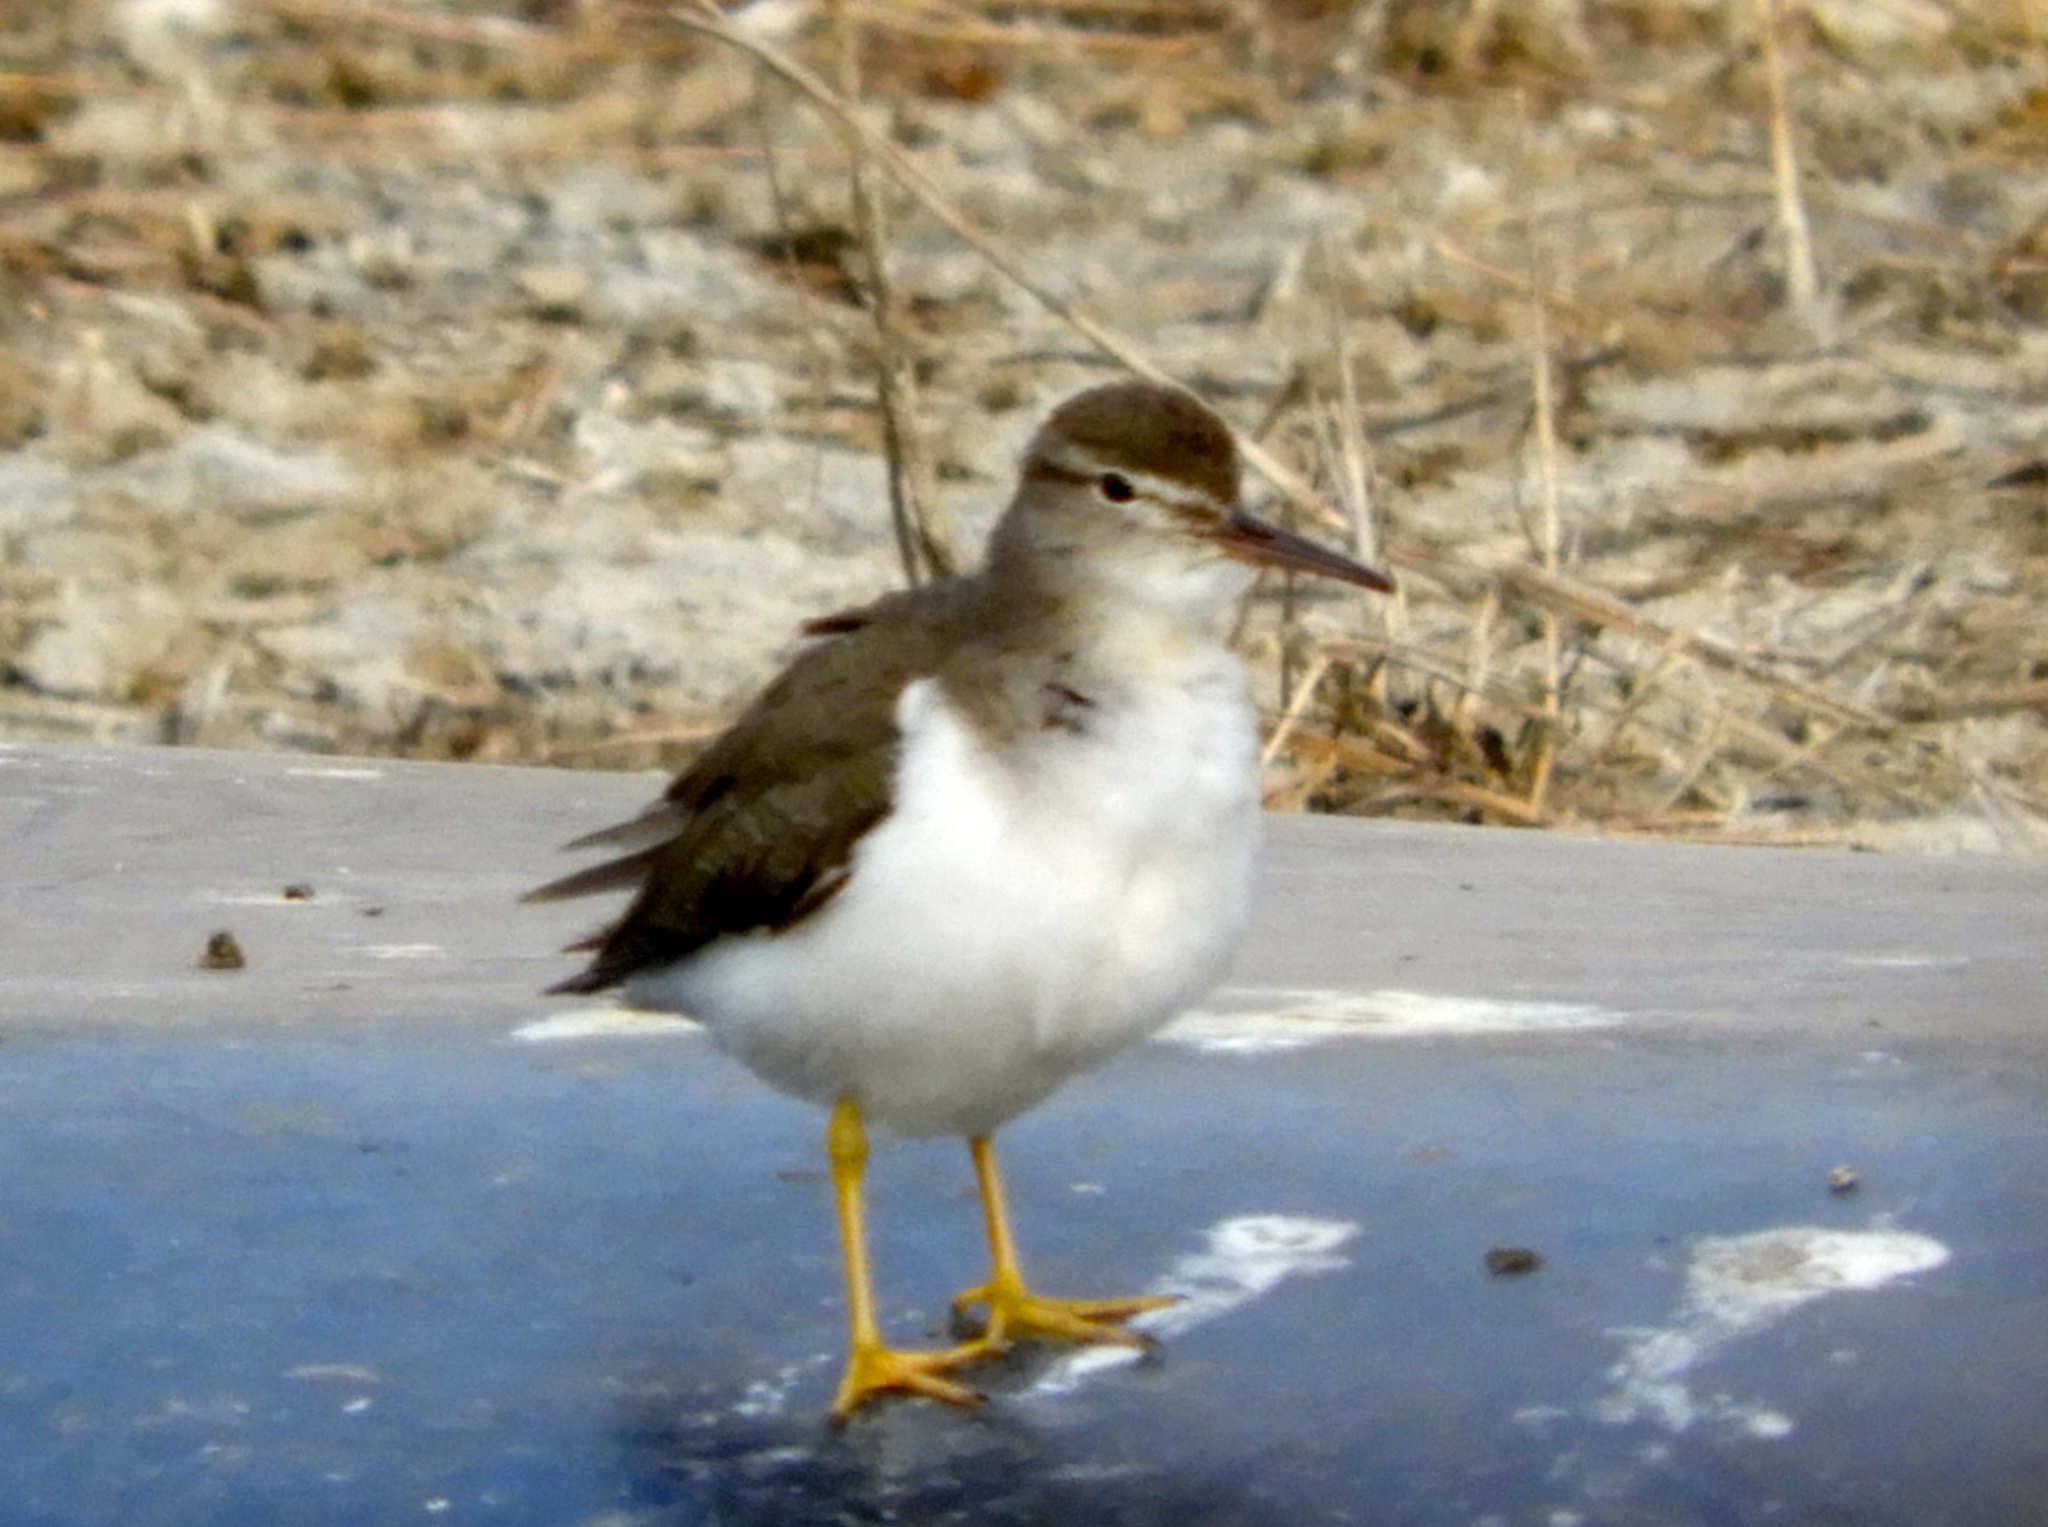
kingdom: Animalia
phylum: Chordata
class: Aves
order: Charadriiformes
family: Scolopacidae
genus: Actitis
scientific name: Actitis macularius
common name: Spotted sandpiper
